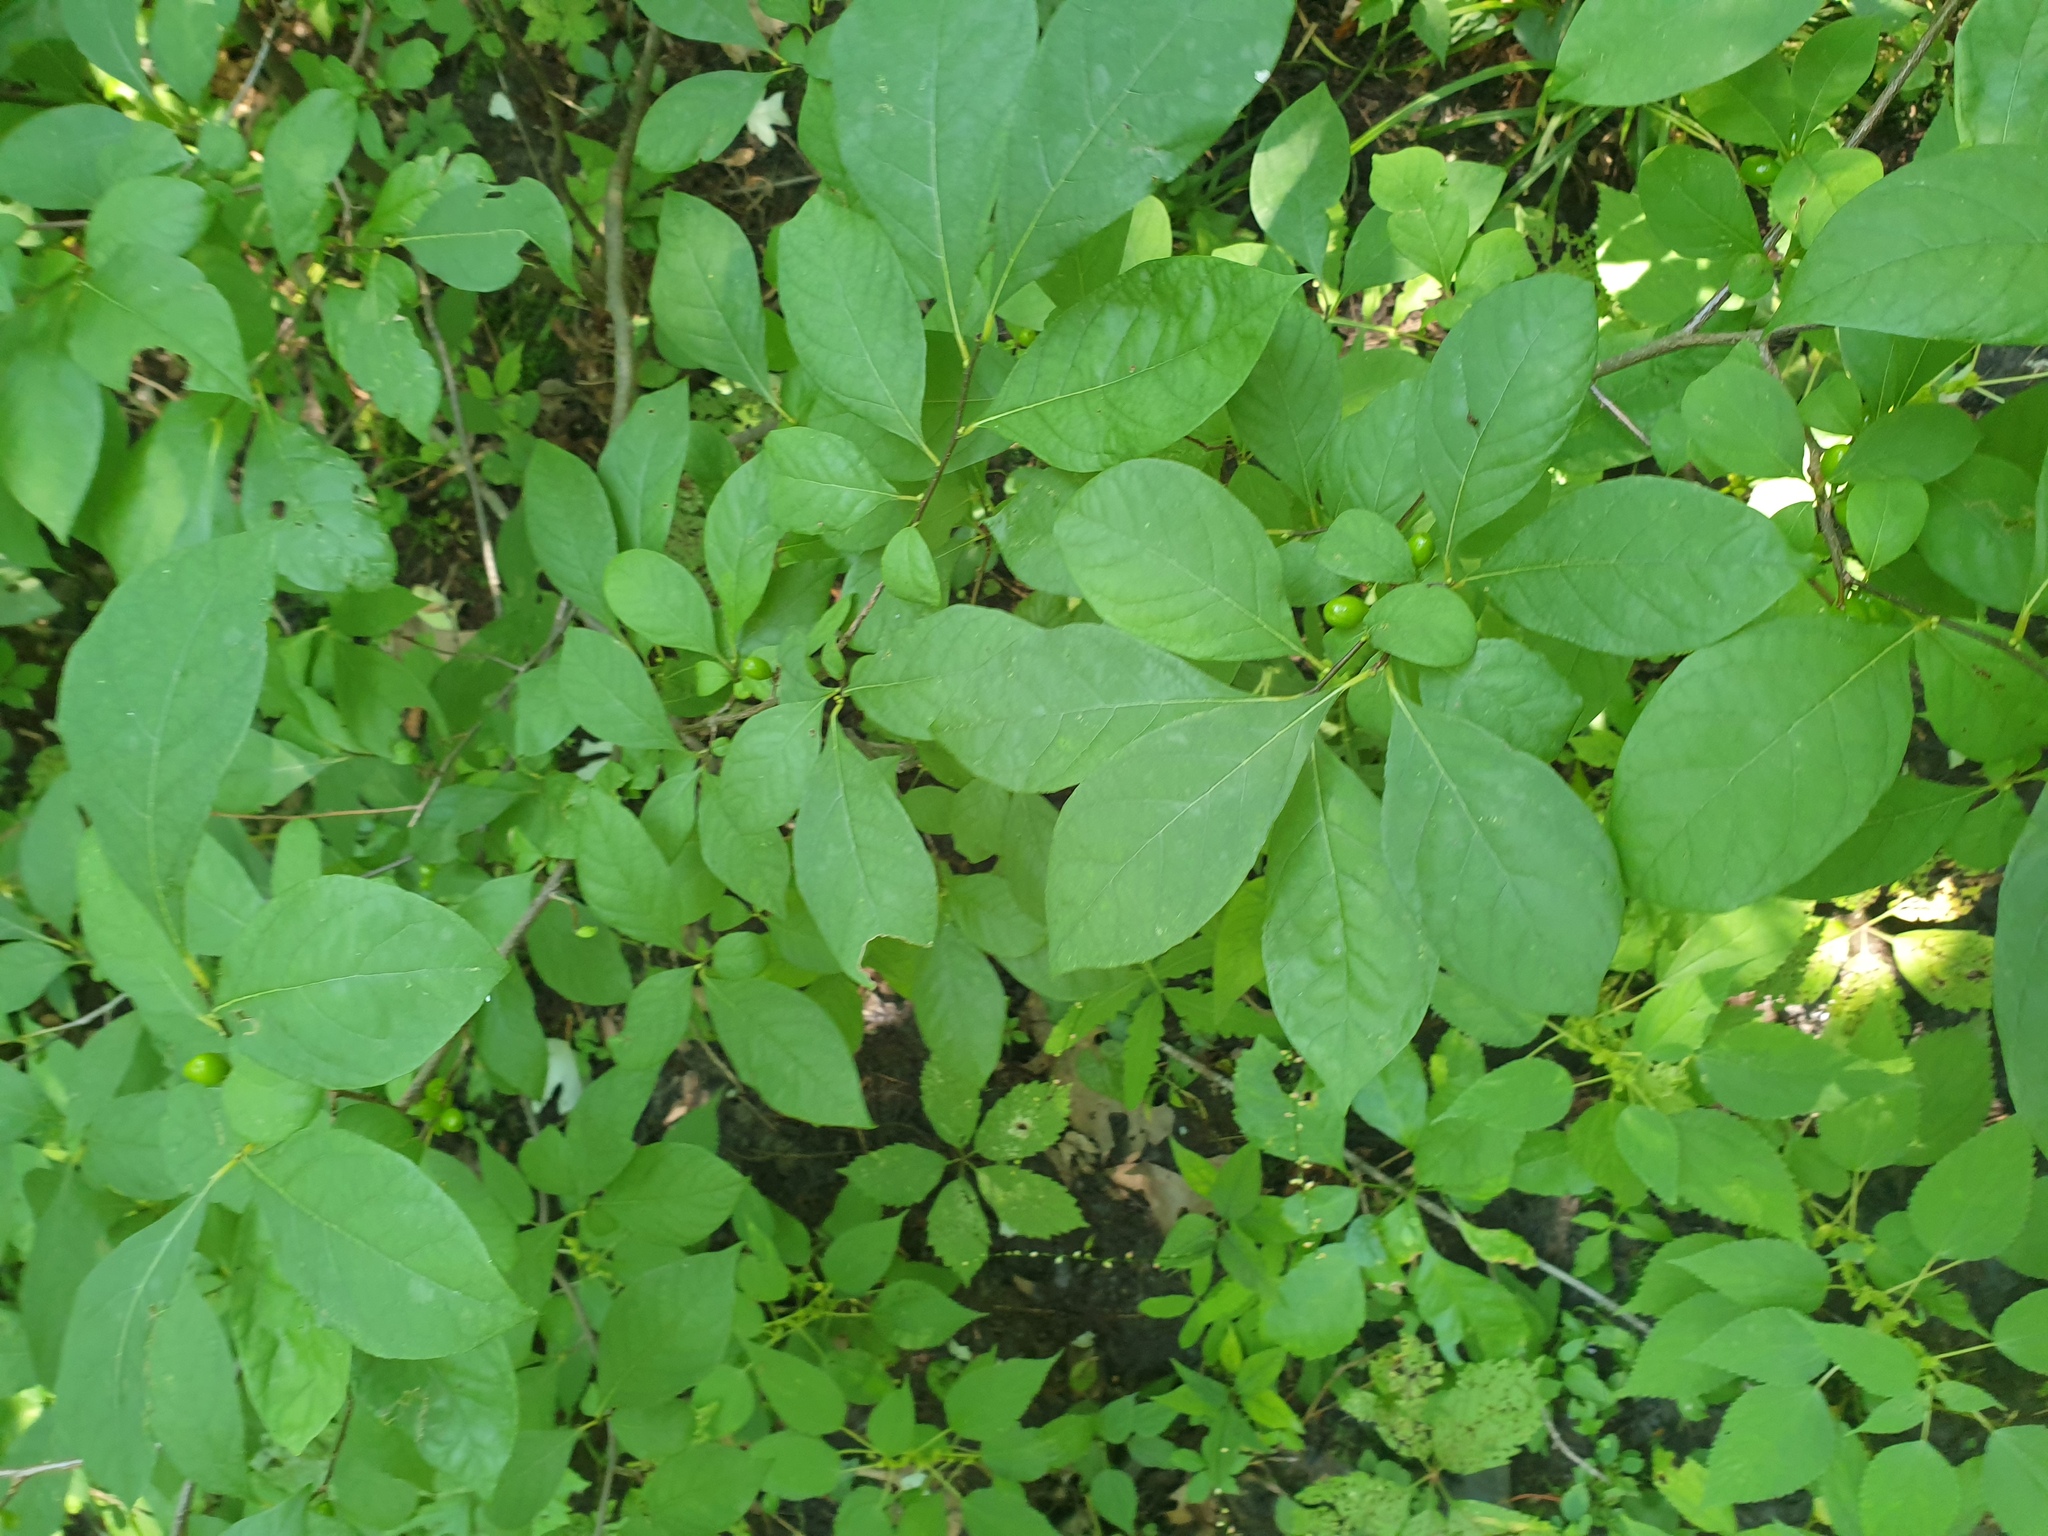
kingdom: Plantae
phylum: Tracheophyta
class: Magnoliopsida
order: Laurales
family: Lauraceae
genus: Lindera
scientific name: Lindera benzoin
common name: Spicebush
